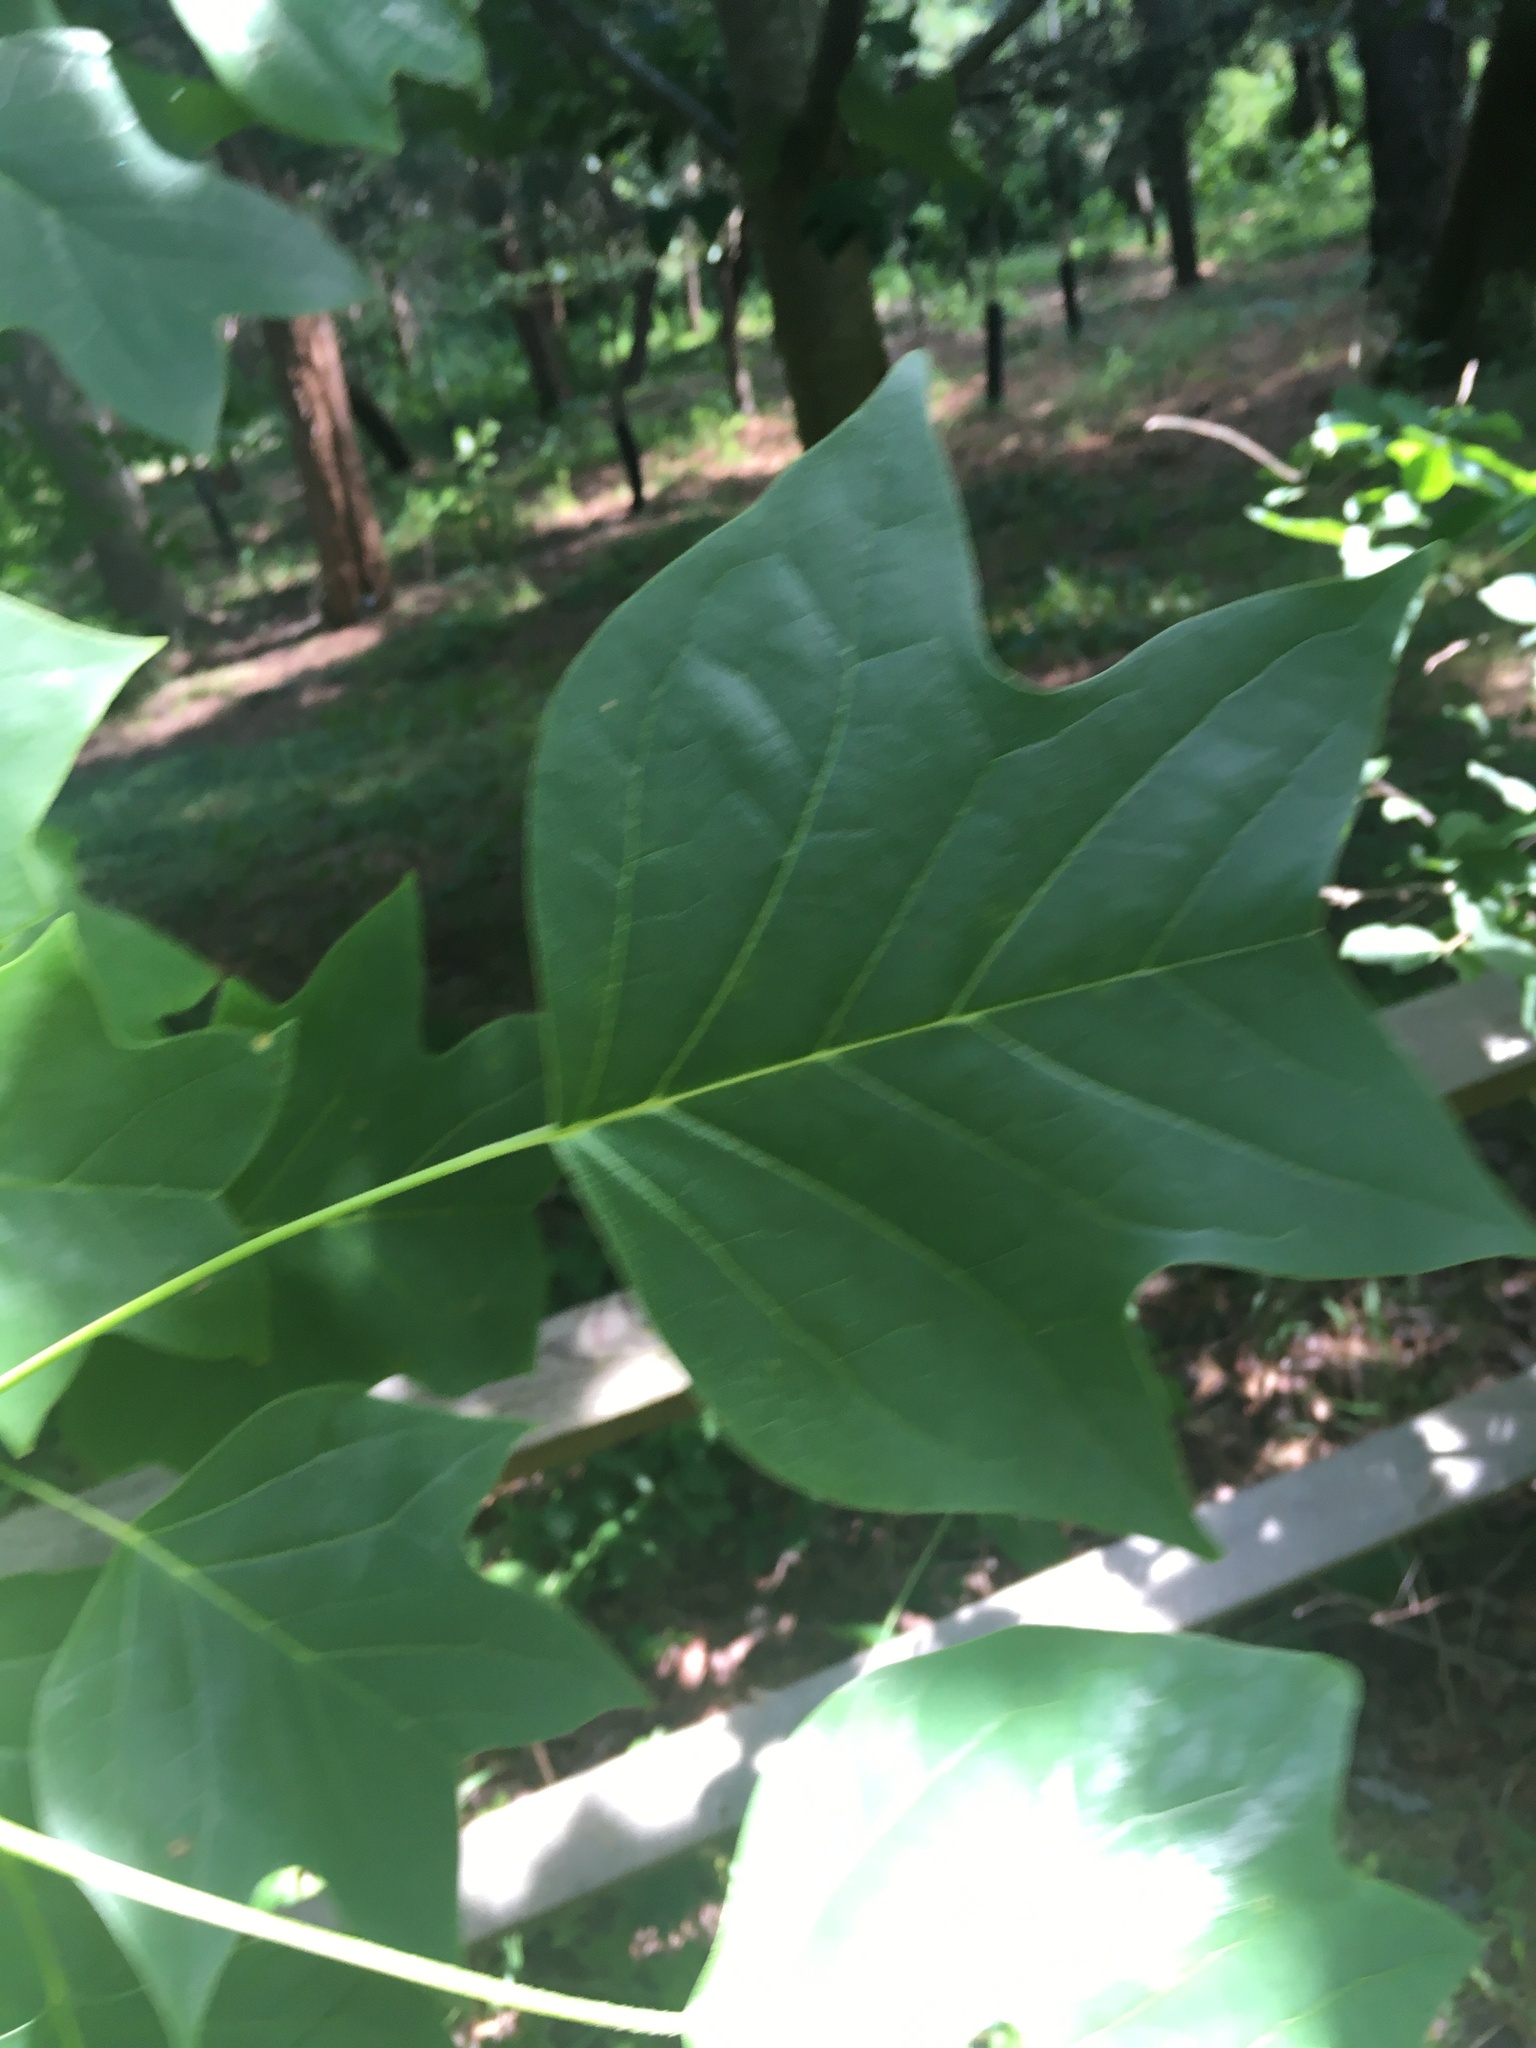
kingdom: Plantae
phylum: Tracheophyta
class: Magnoliopsida
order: Magnoliales
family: Magnoliaceae
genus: Liriodendron
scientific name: Liriodendron tulipifera
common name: Tulip tree
